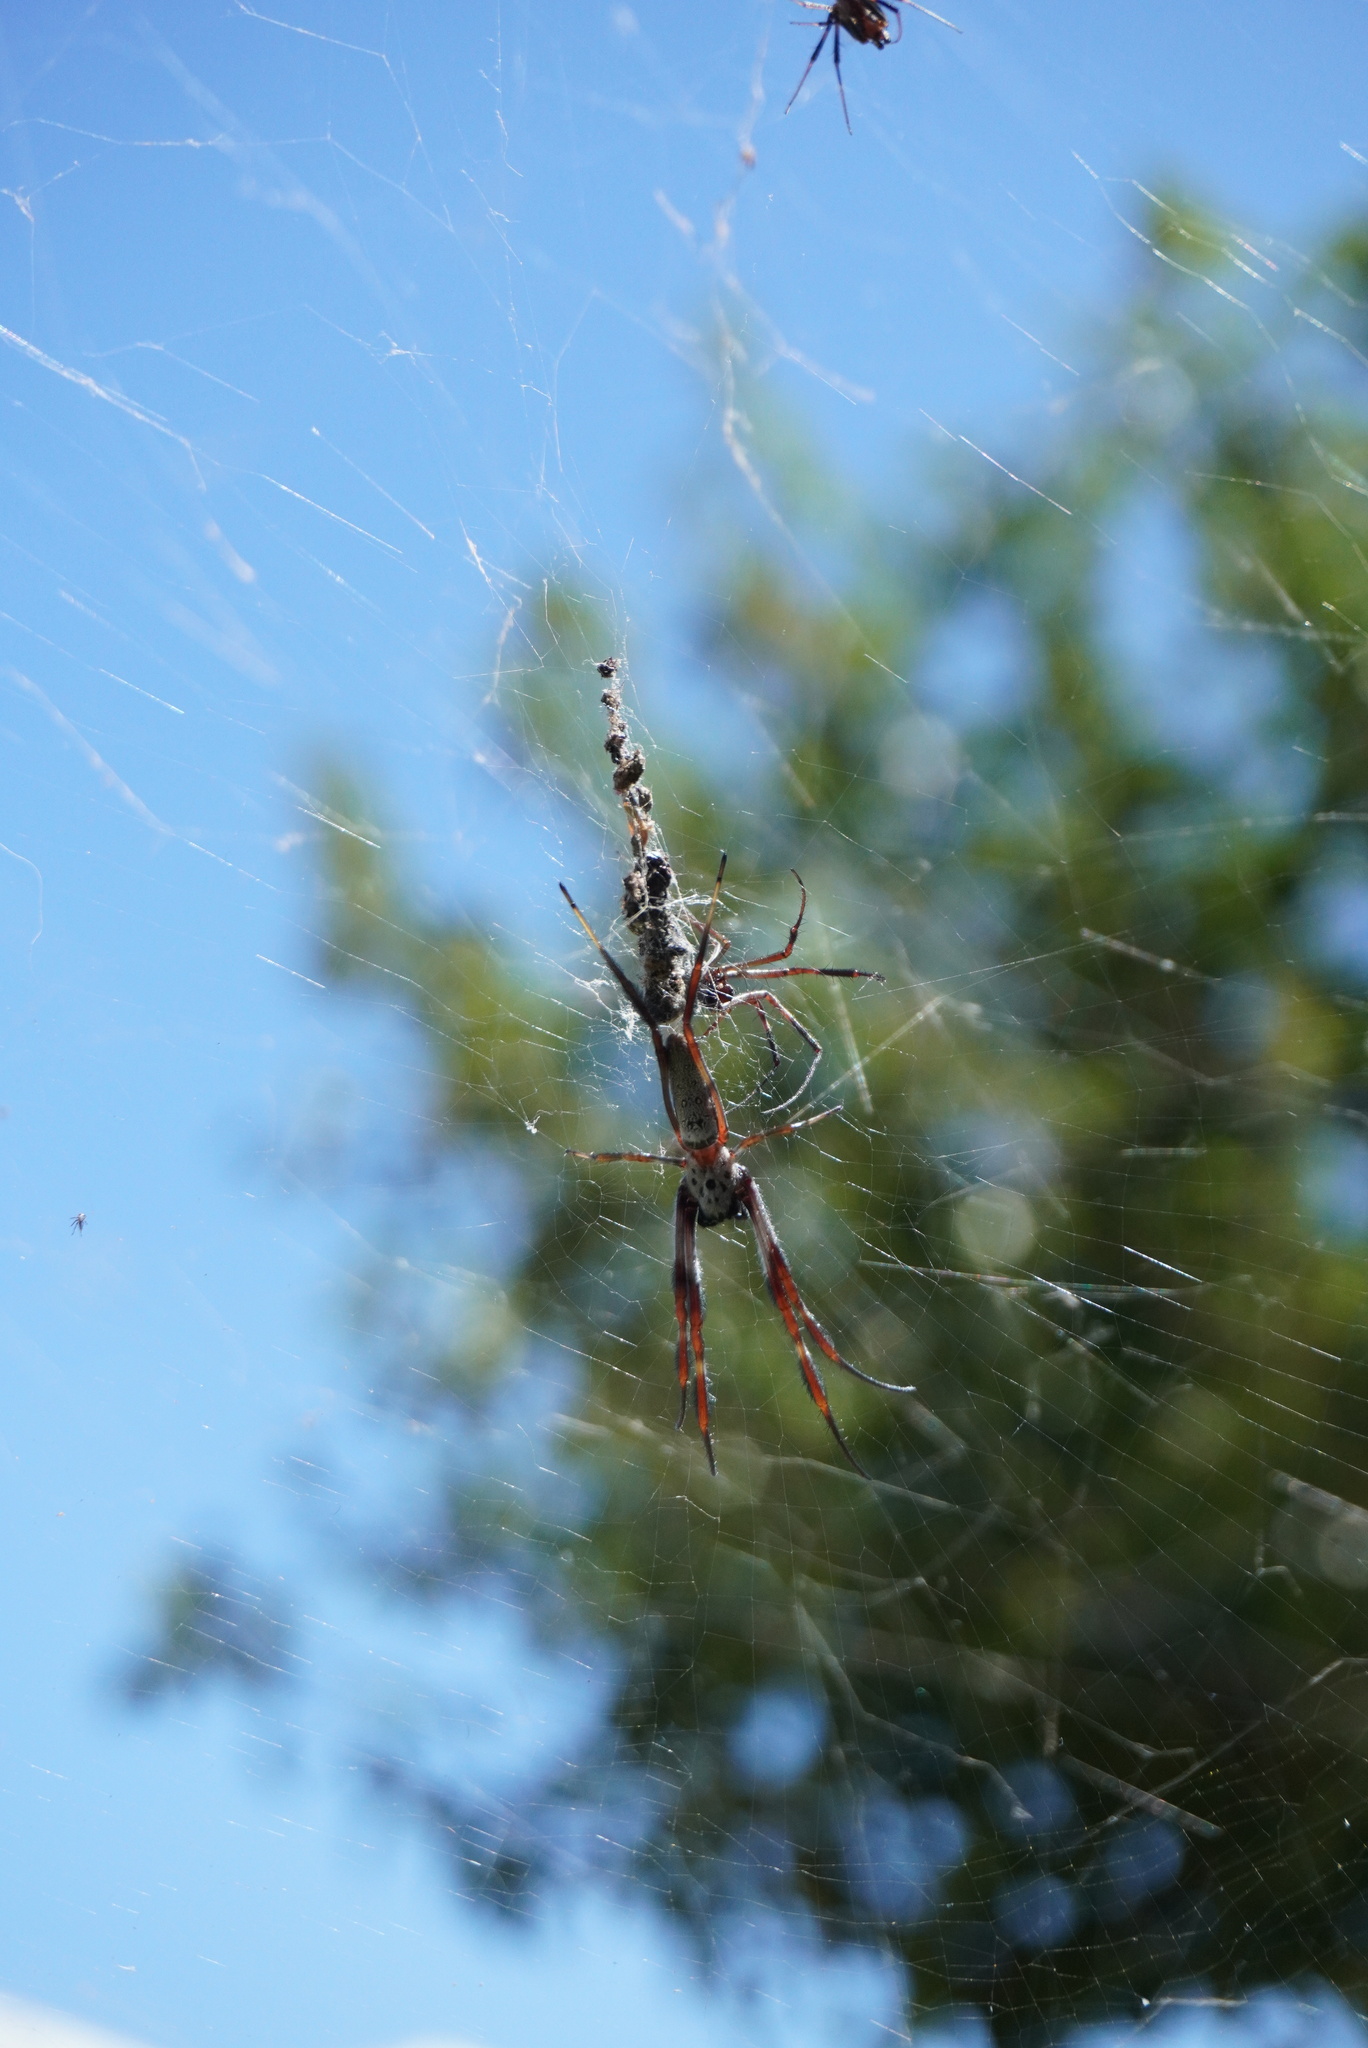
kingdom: Animalia
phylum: Arthropoda
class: Arachnida
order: Araneae
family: Araneidae
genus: Trichonephila
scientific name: Trichonephila edulis
